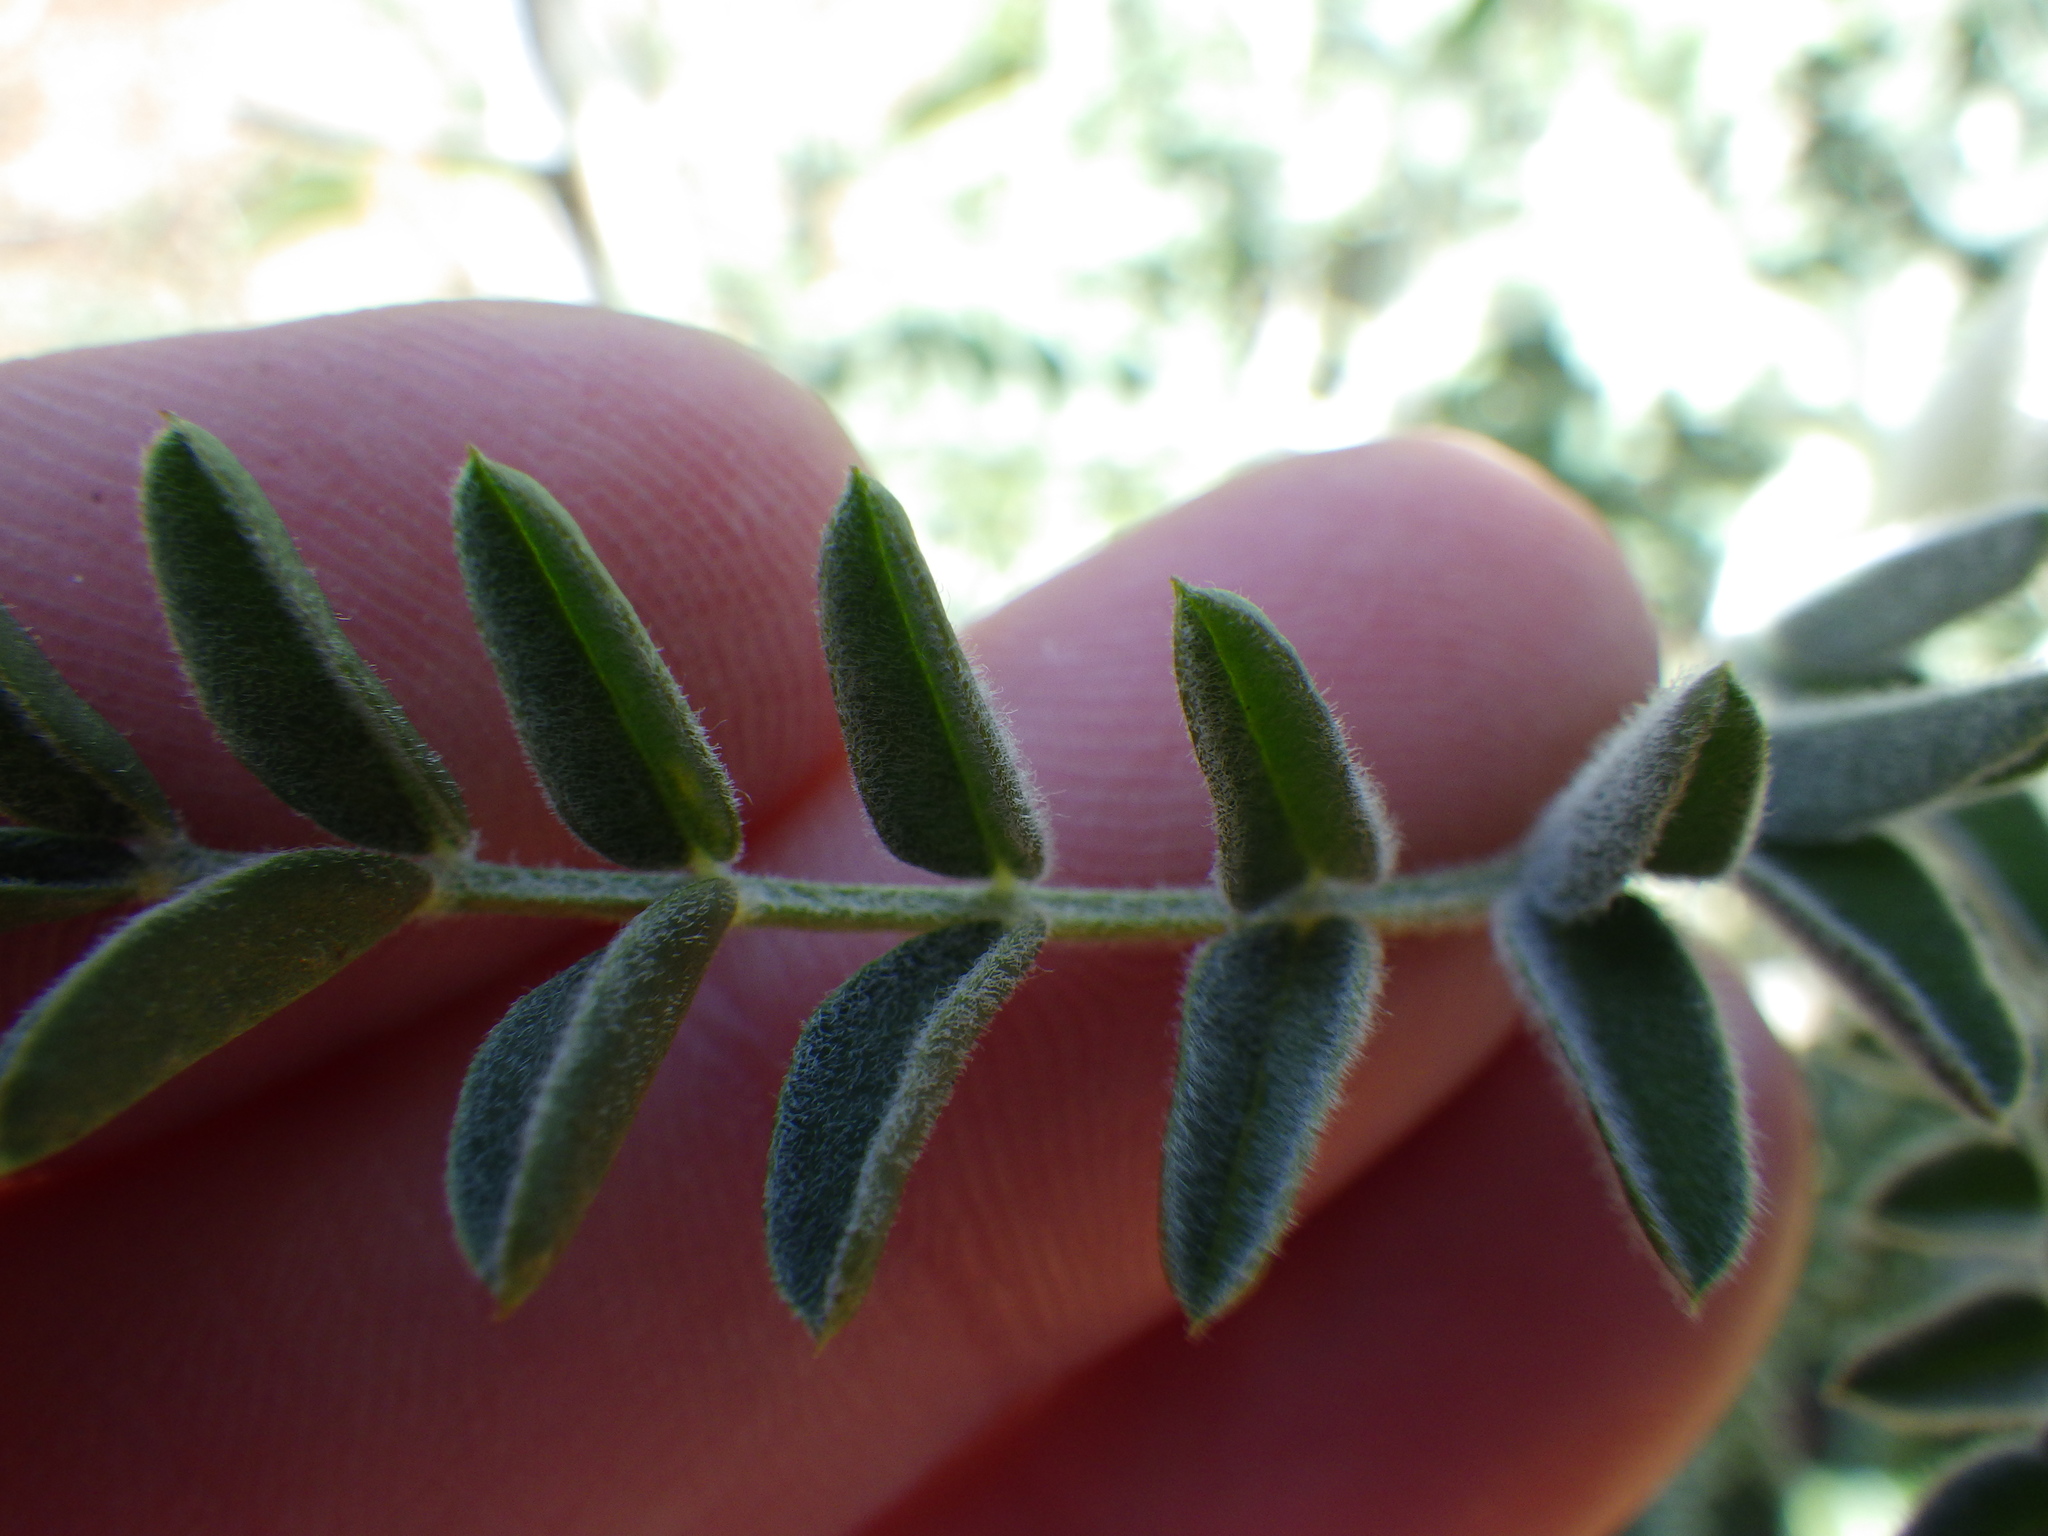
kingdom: Plantae
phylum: Tracheophyta
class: Magnoliopsida
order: Fabales
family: Fabaceae
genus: Astragalus
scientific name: Astragalus brauntonii
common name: Braunton's milk-vetch
